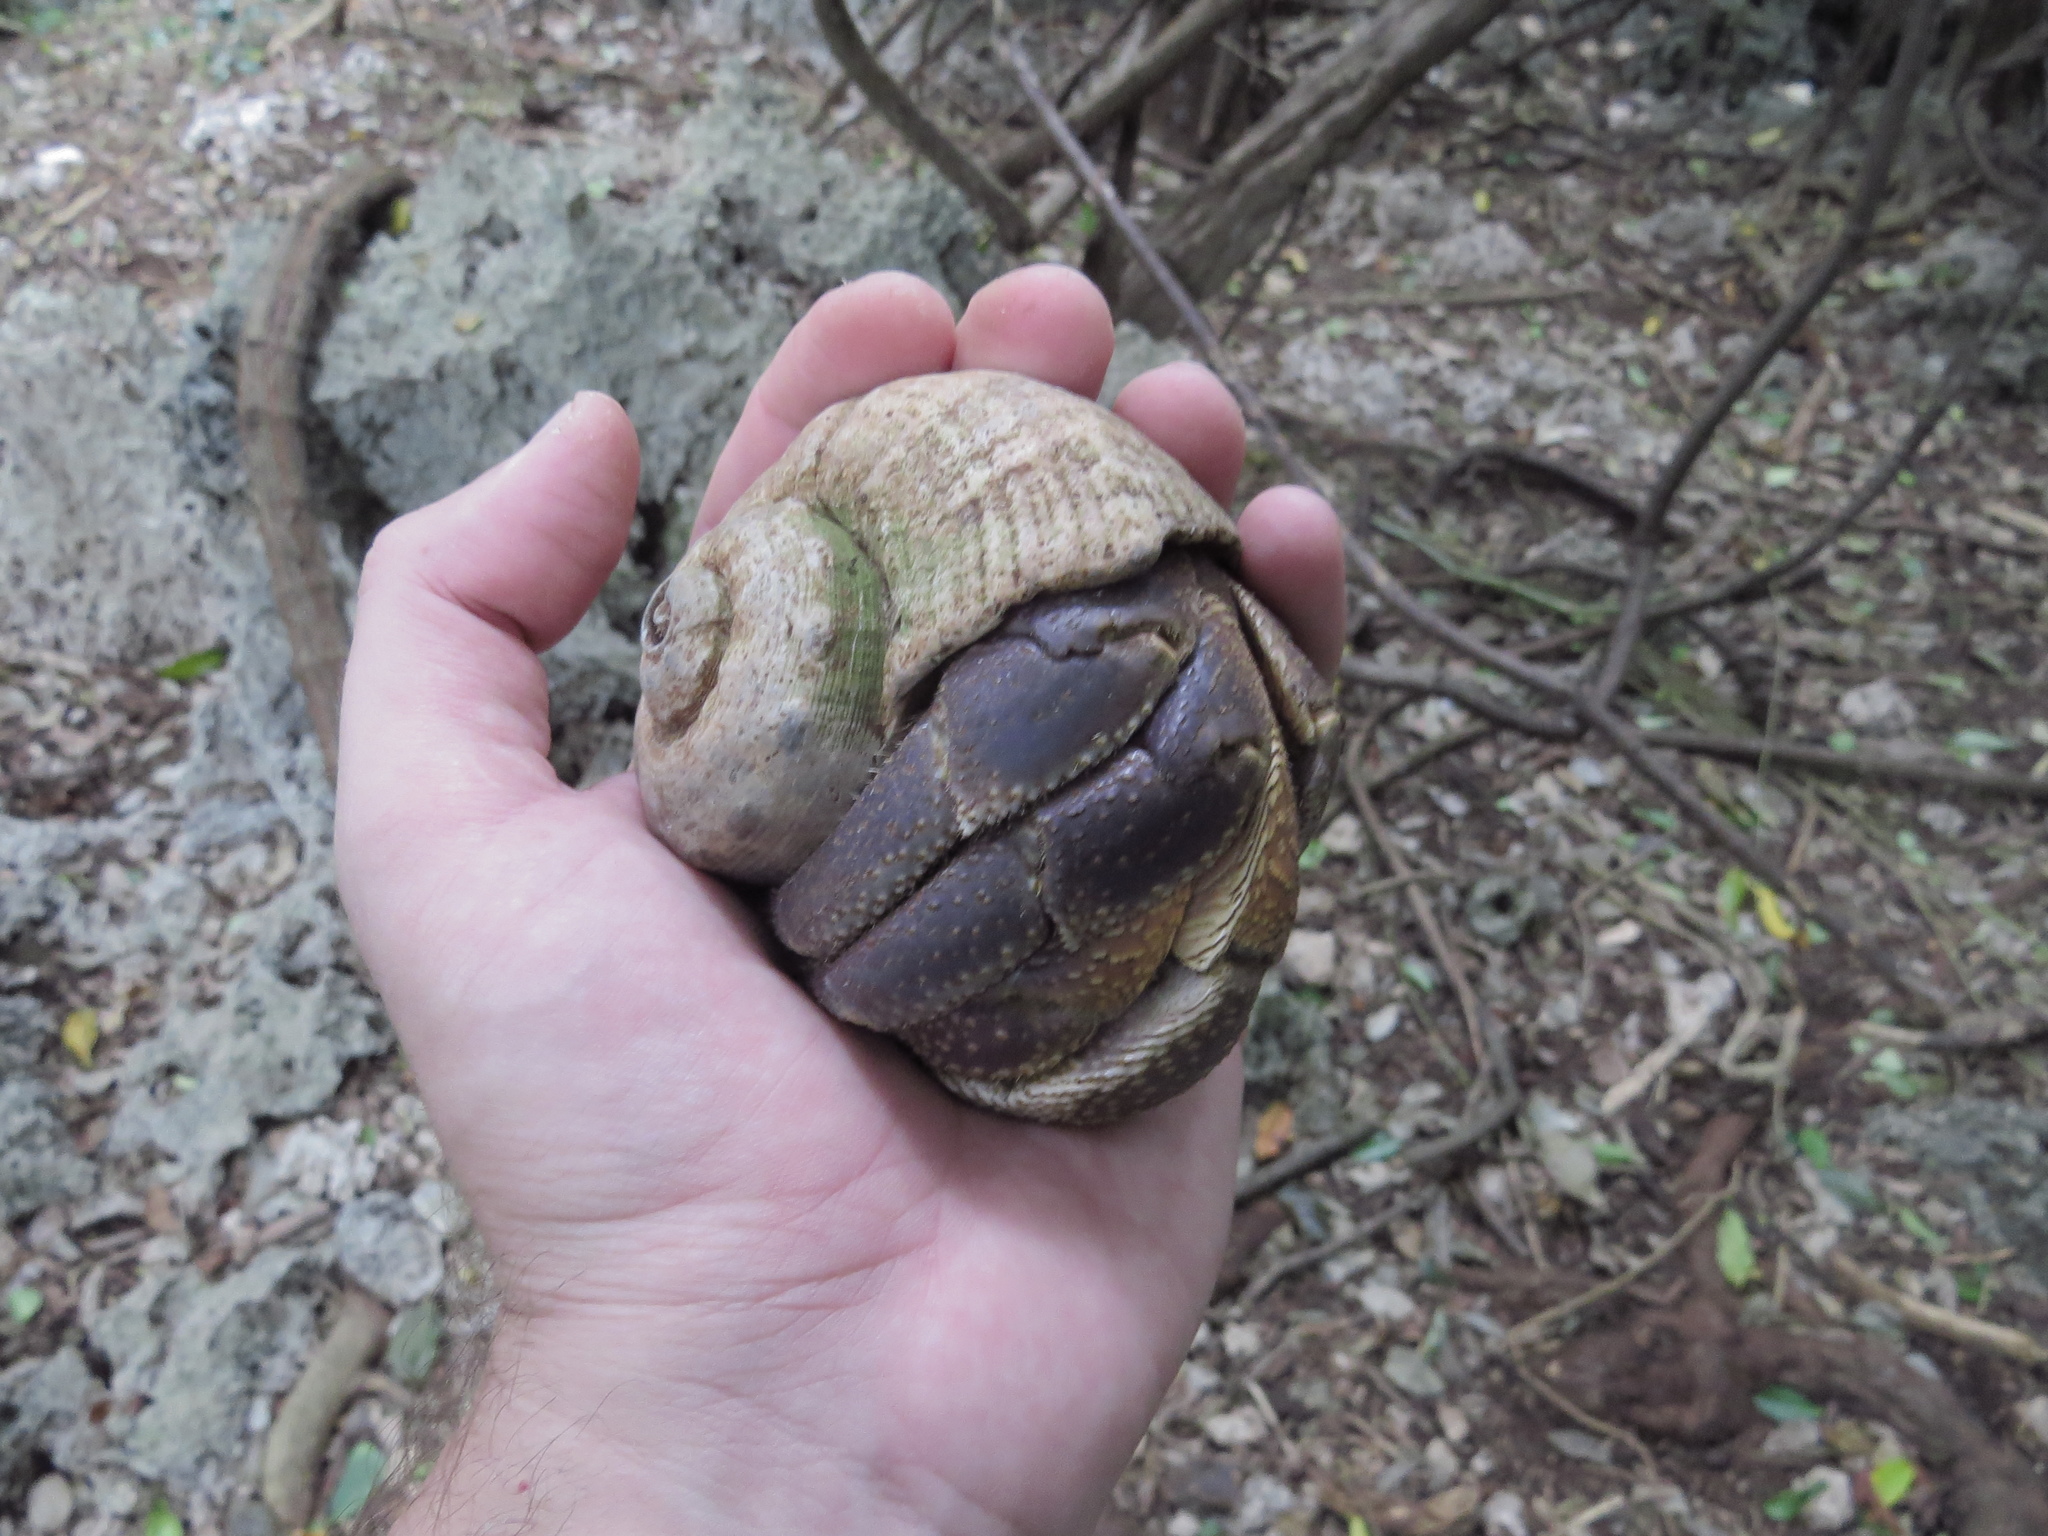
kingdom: Animalia
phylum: Arthropoda
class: Malacostraca
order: Decapoda
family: Coenobitidae
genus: Coenobita
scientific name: Coenobita brevimanus
